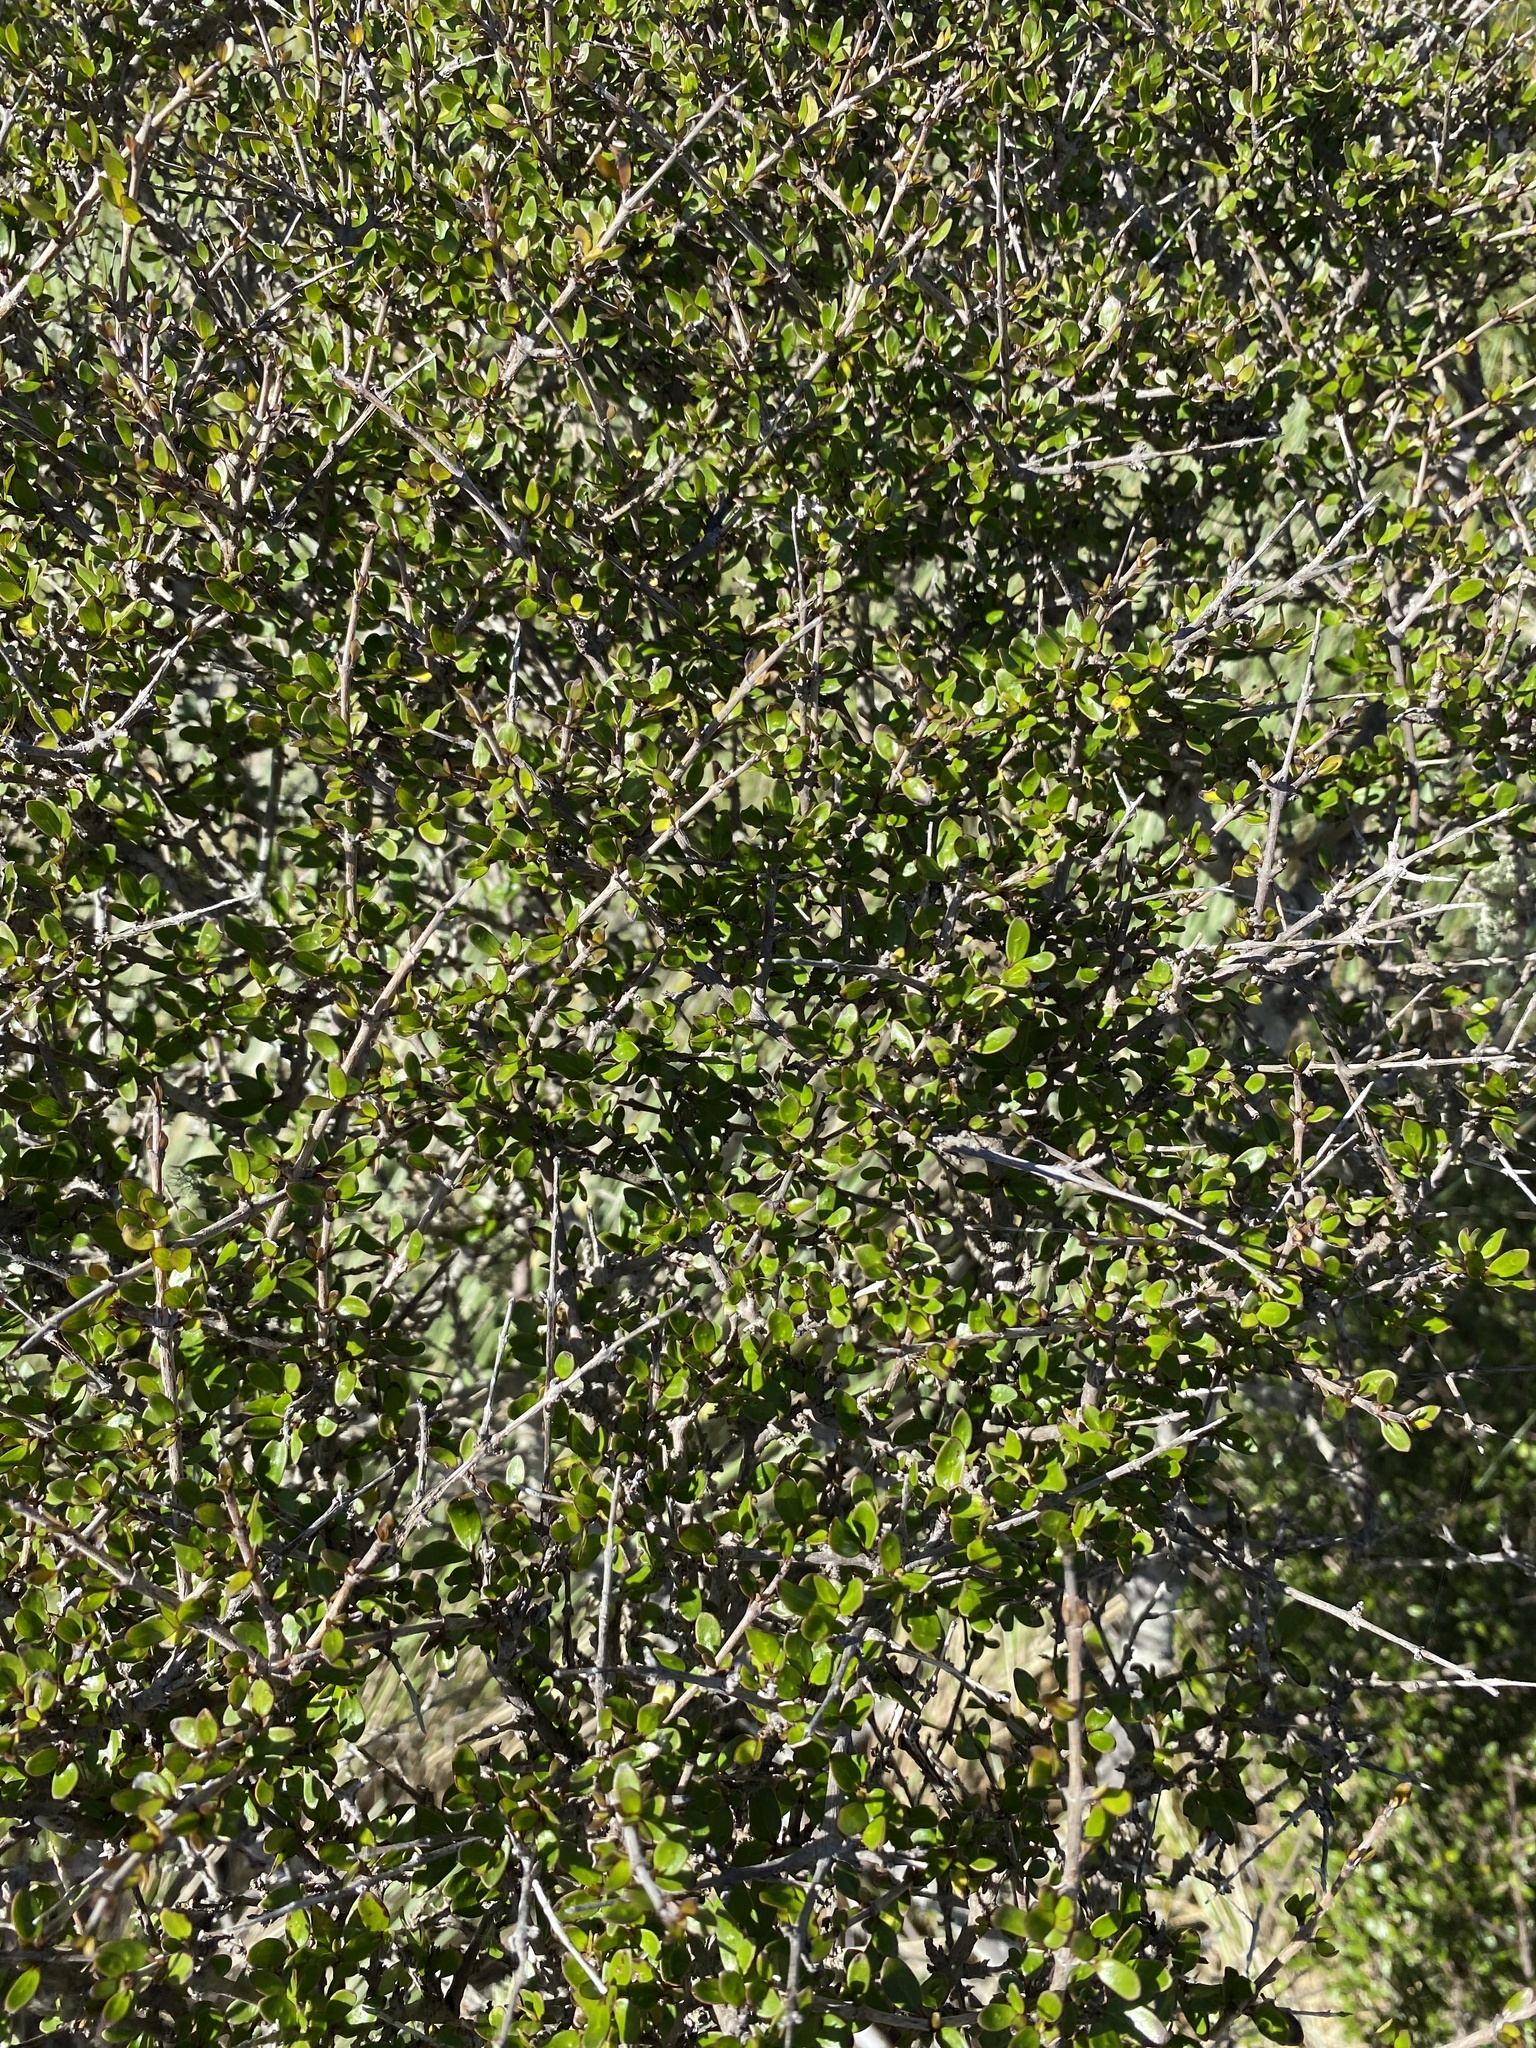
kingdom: Plantae
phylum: Tracheophyta
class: Magnoliopsida
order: Gentianales
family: Rubiaceae
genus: Coprosma
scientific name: Coprosma propinqua
